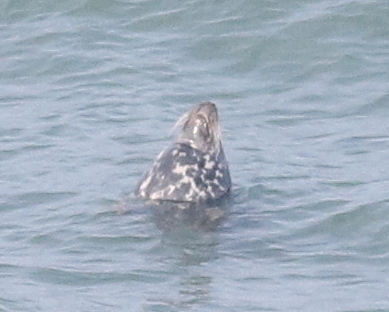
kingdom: Animalia
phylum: Chordata
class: Mammalia
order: Carnivora
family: Phocidae
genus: Halichoerus
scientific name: Halichoerus grypus
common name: Grey seal
